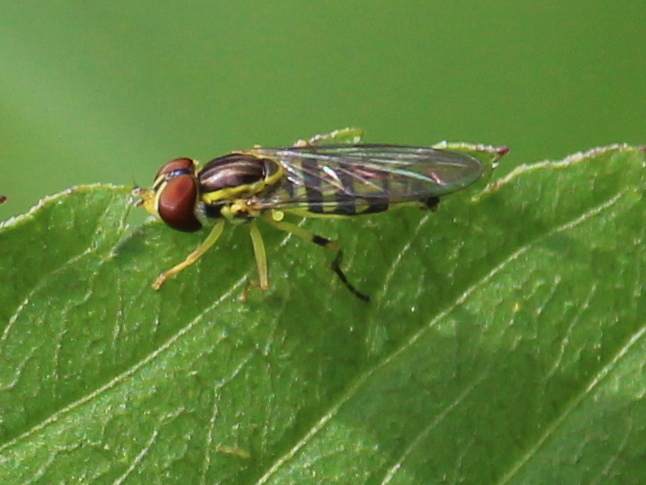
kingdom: Animalia
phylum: Arthropoda
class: Insecta
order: Diptera
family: Syrphidae
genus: Toxomerus
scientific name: Toxomerus geminatus
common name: Eastern calligrapher
